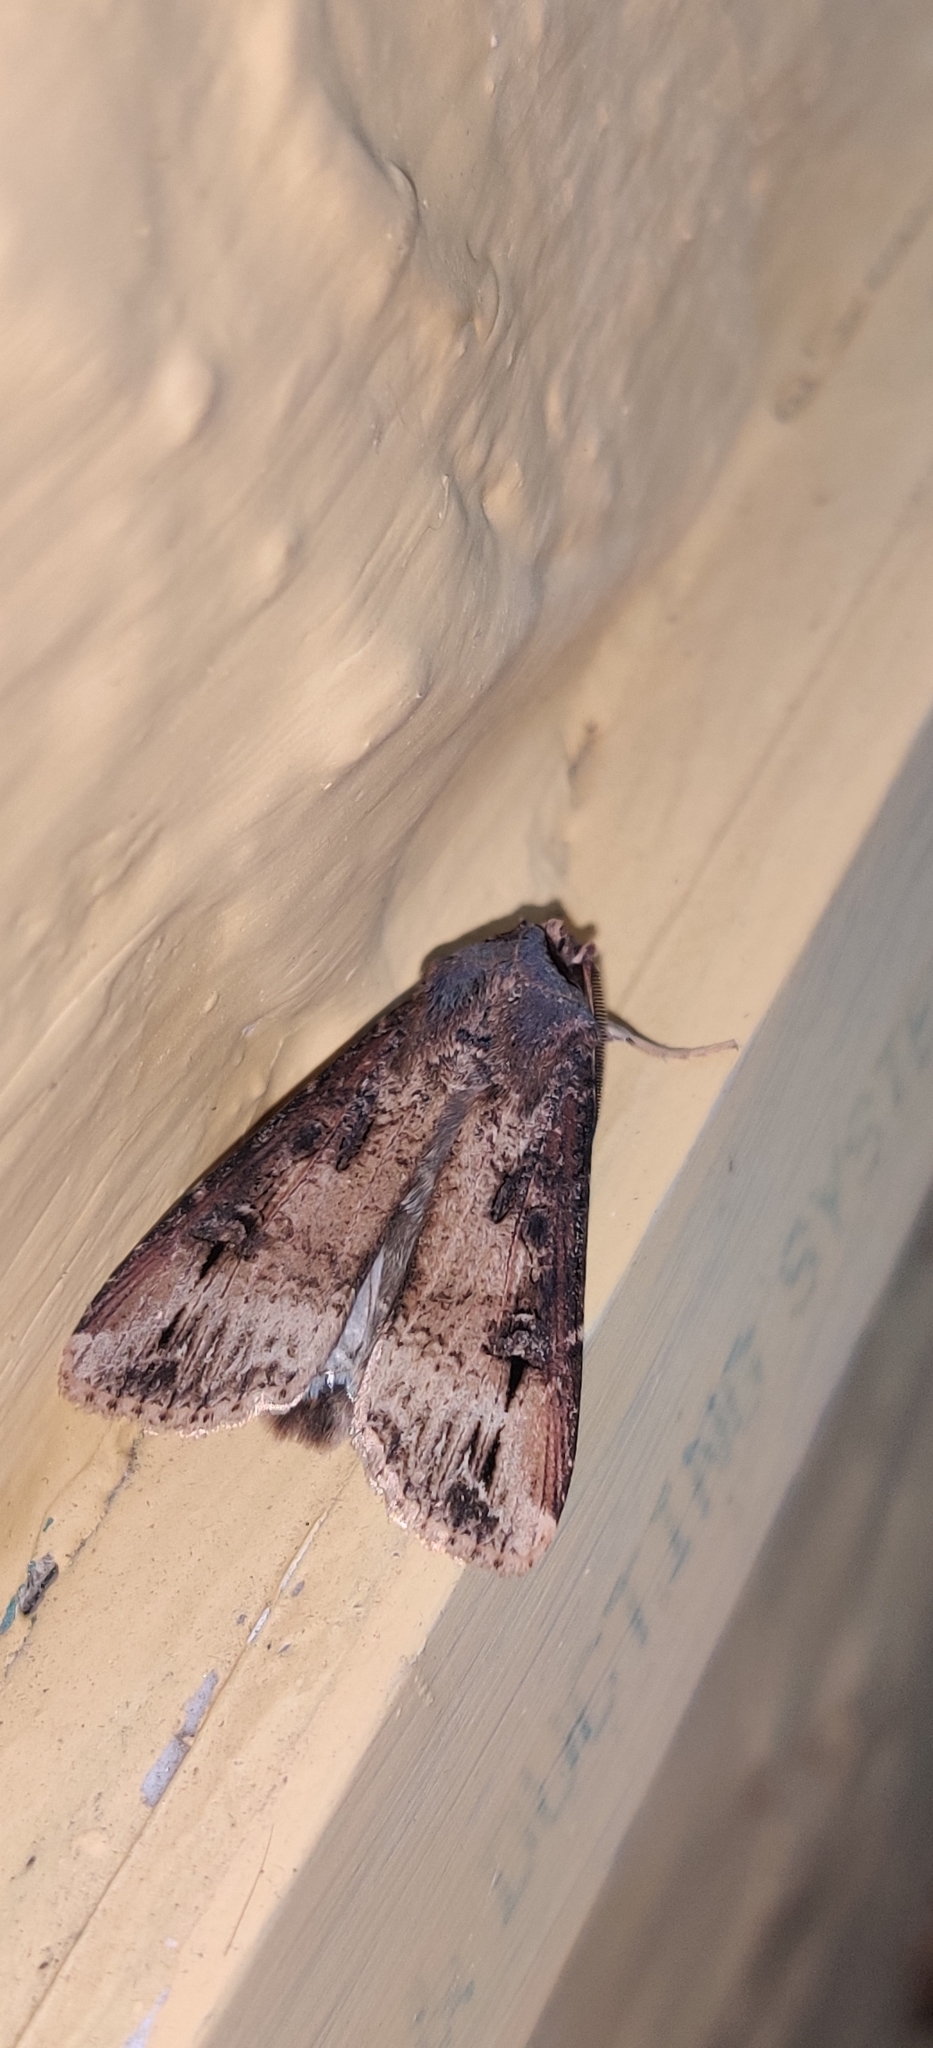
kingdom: Animalia
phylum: Arthropoda
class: Insecta
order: Lepidoptera
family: Noctuidae
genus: Agrotis
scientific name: Agrotis ipsilon
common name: Dark sword-grass
